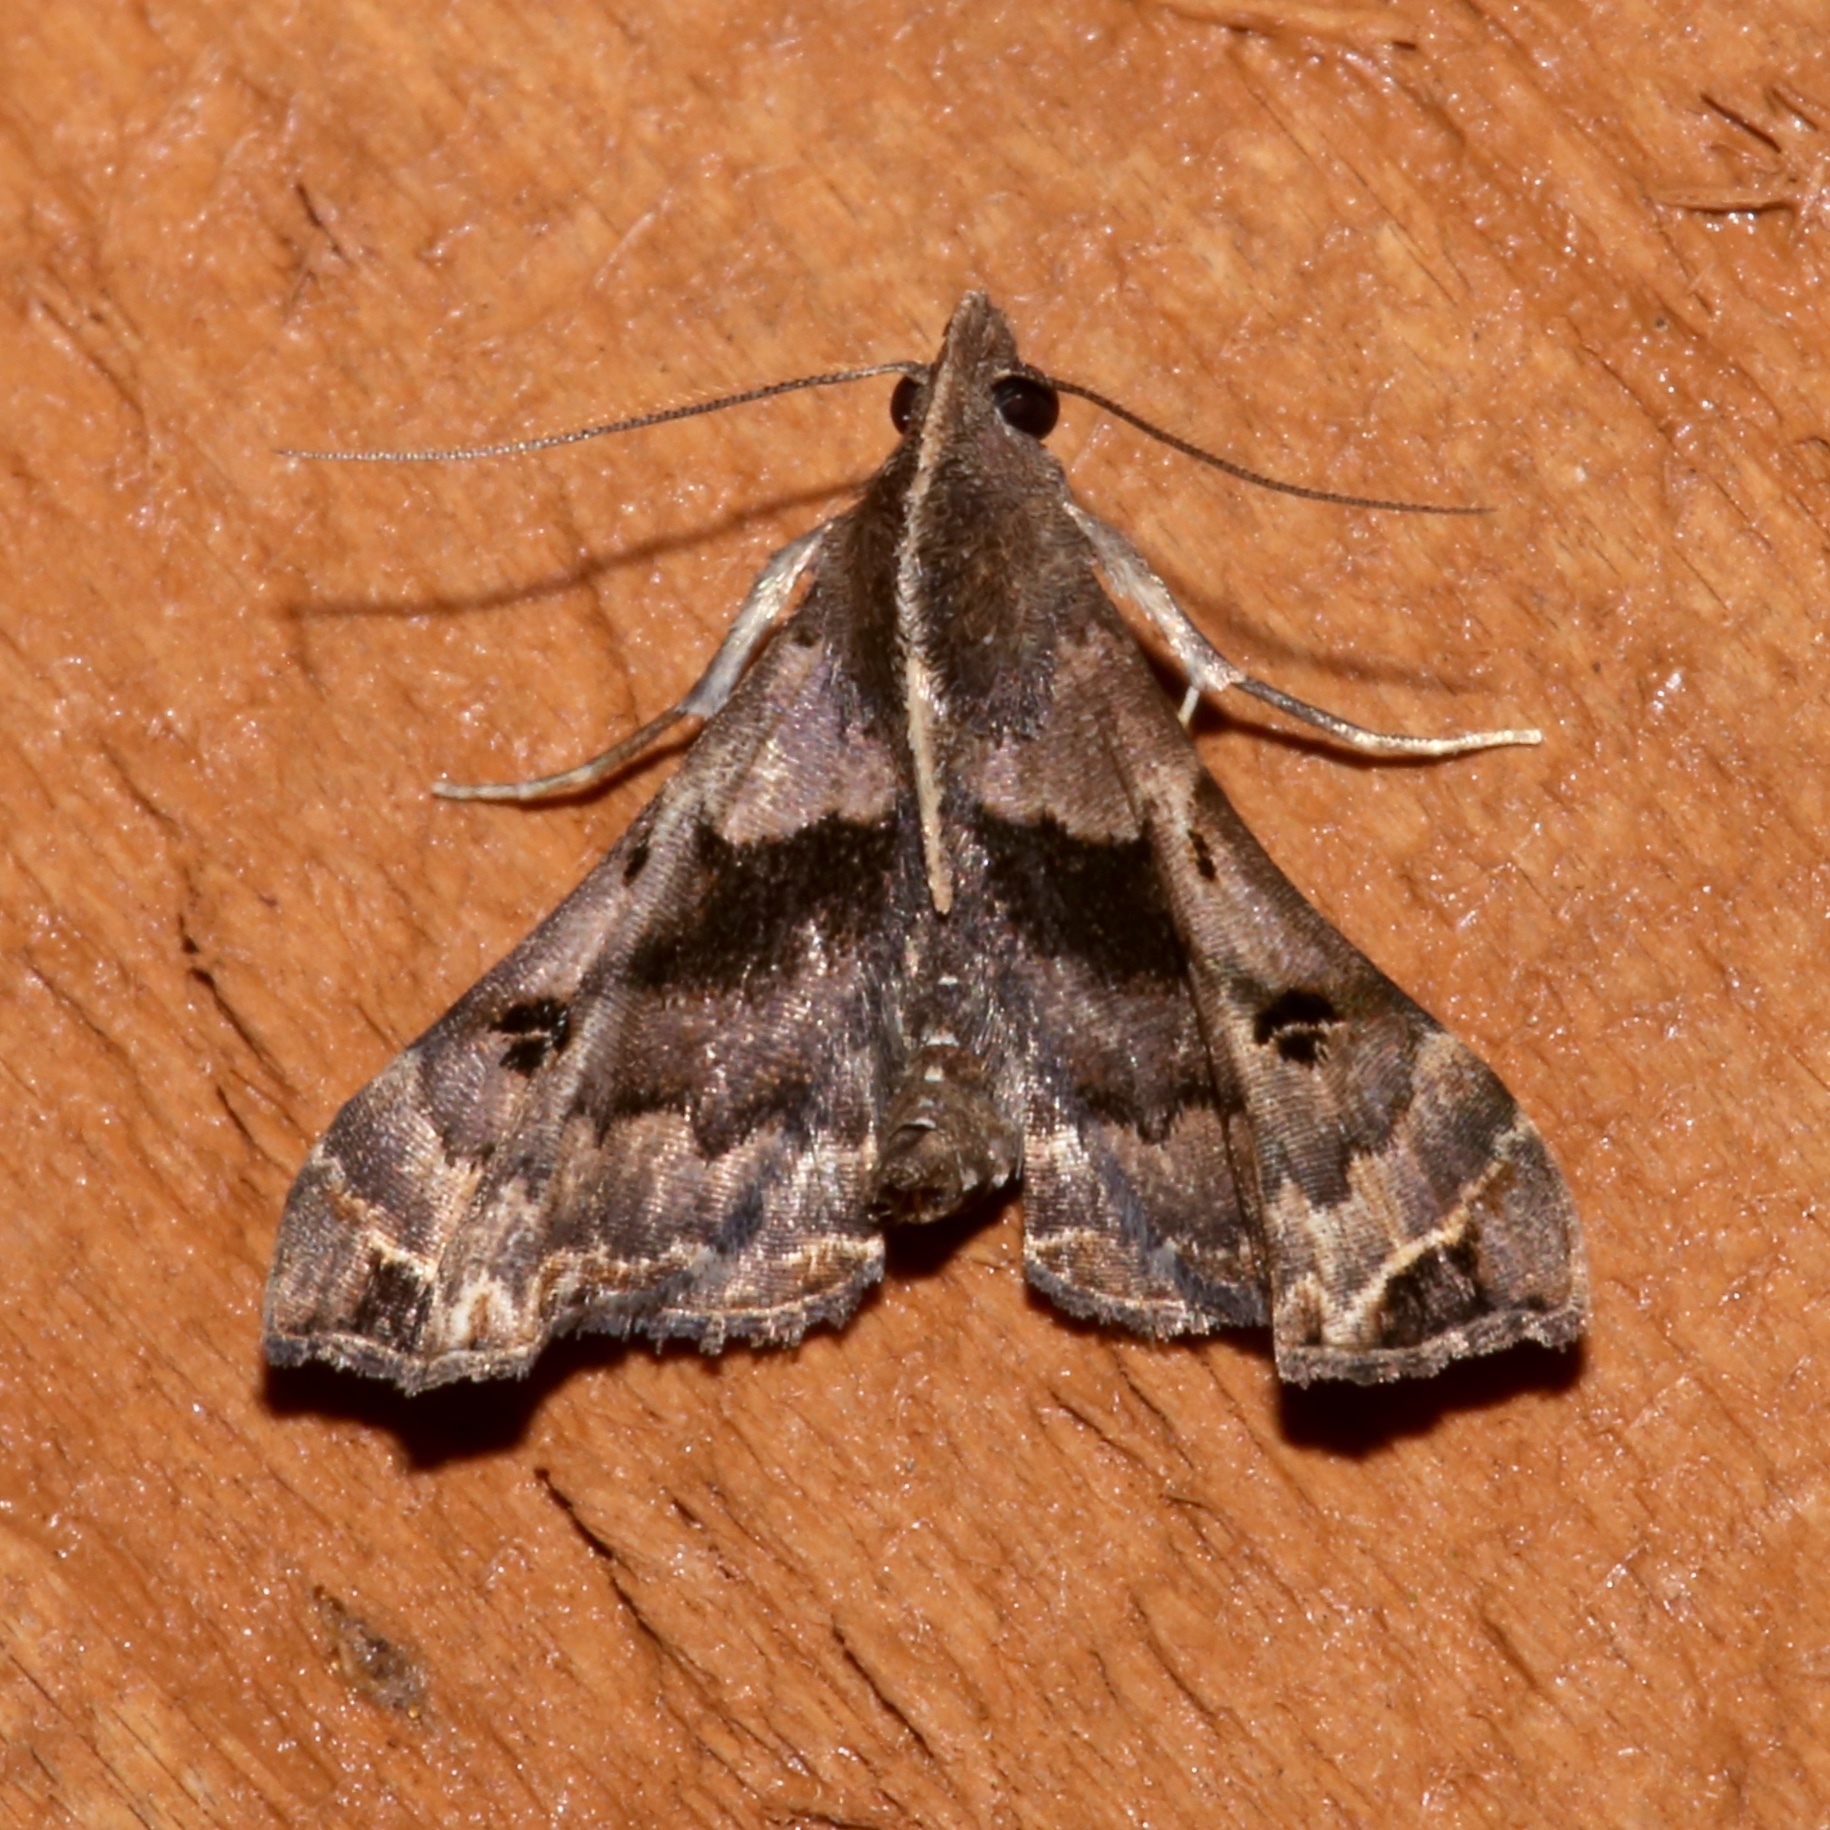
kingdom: Animalia
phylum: Arthropoda
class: Insecta
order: Lepidoptera
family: Erebidae
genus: Palthis
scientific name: Palthis asopialis
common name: Faint-spotted palthis moth
